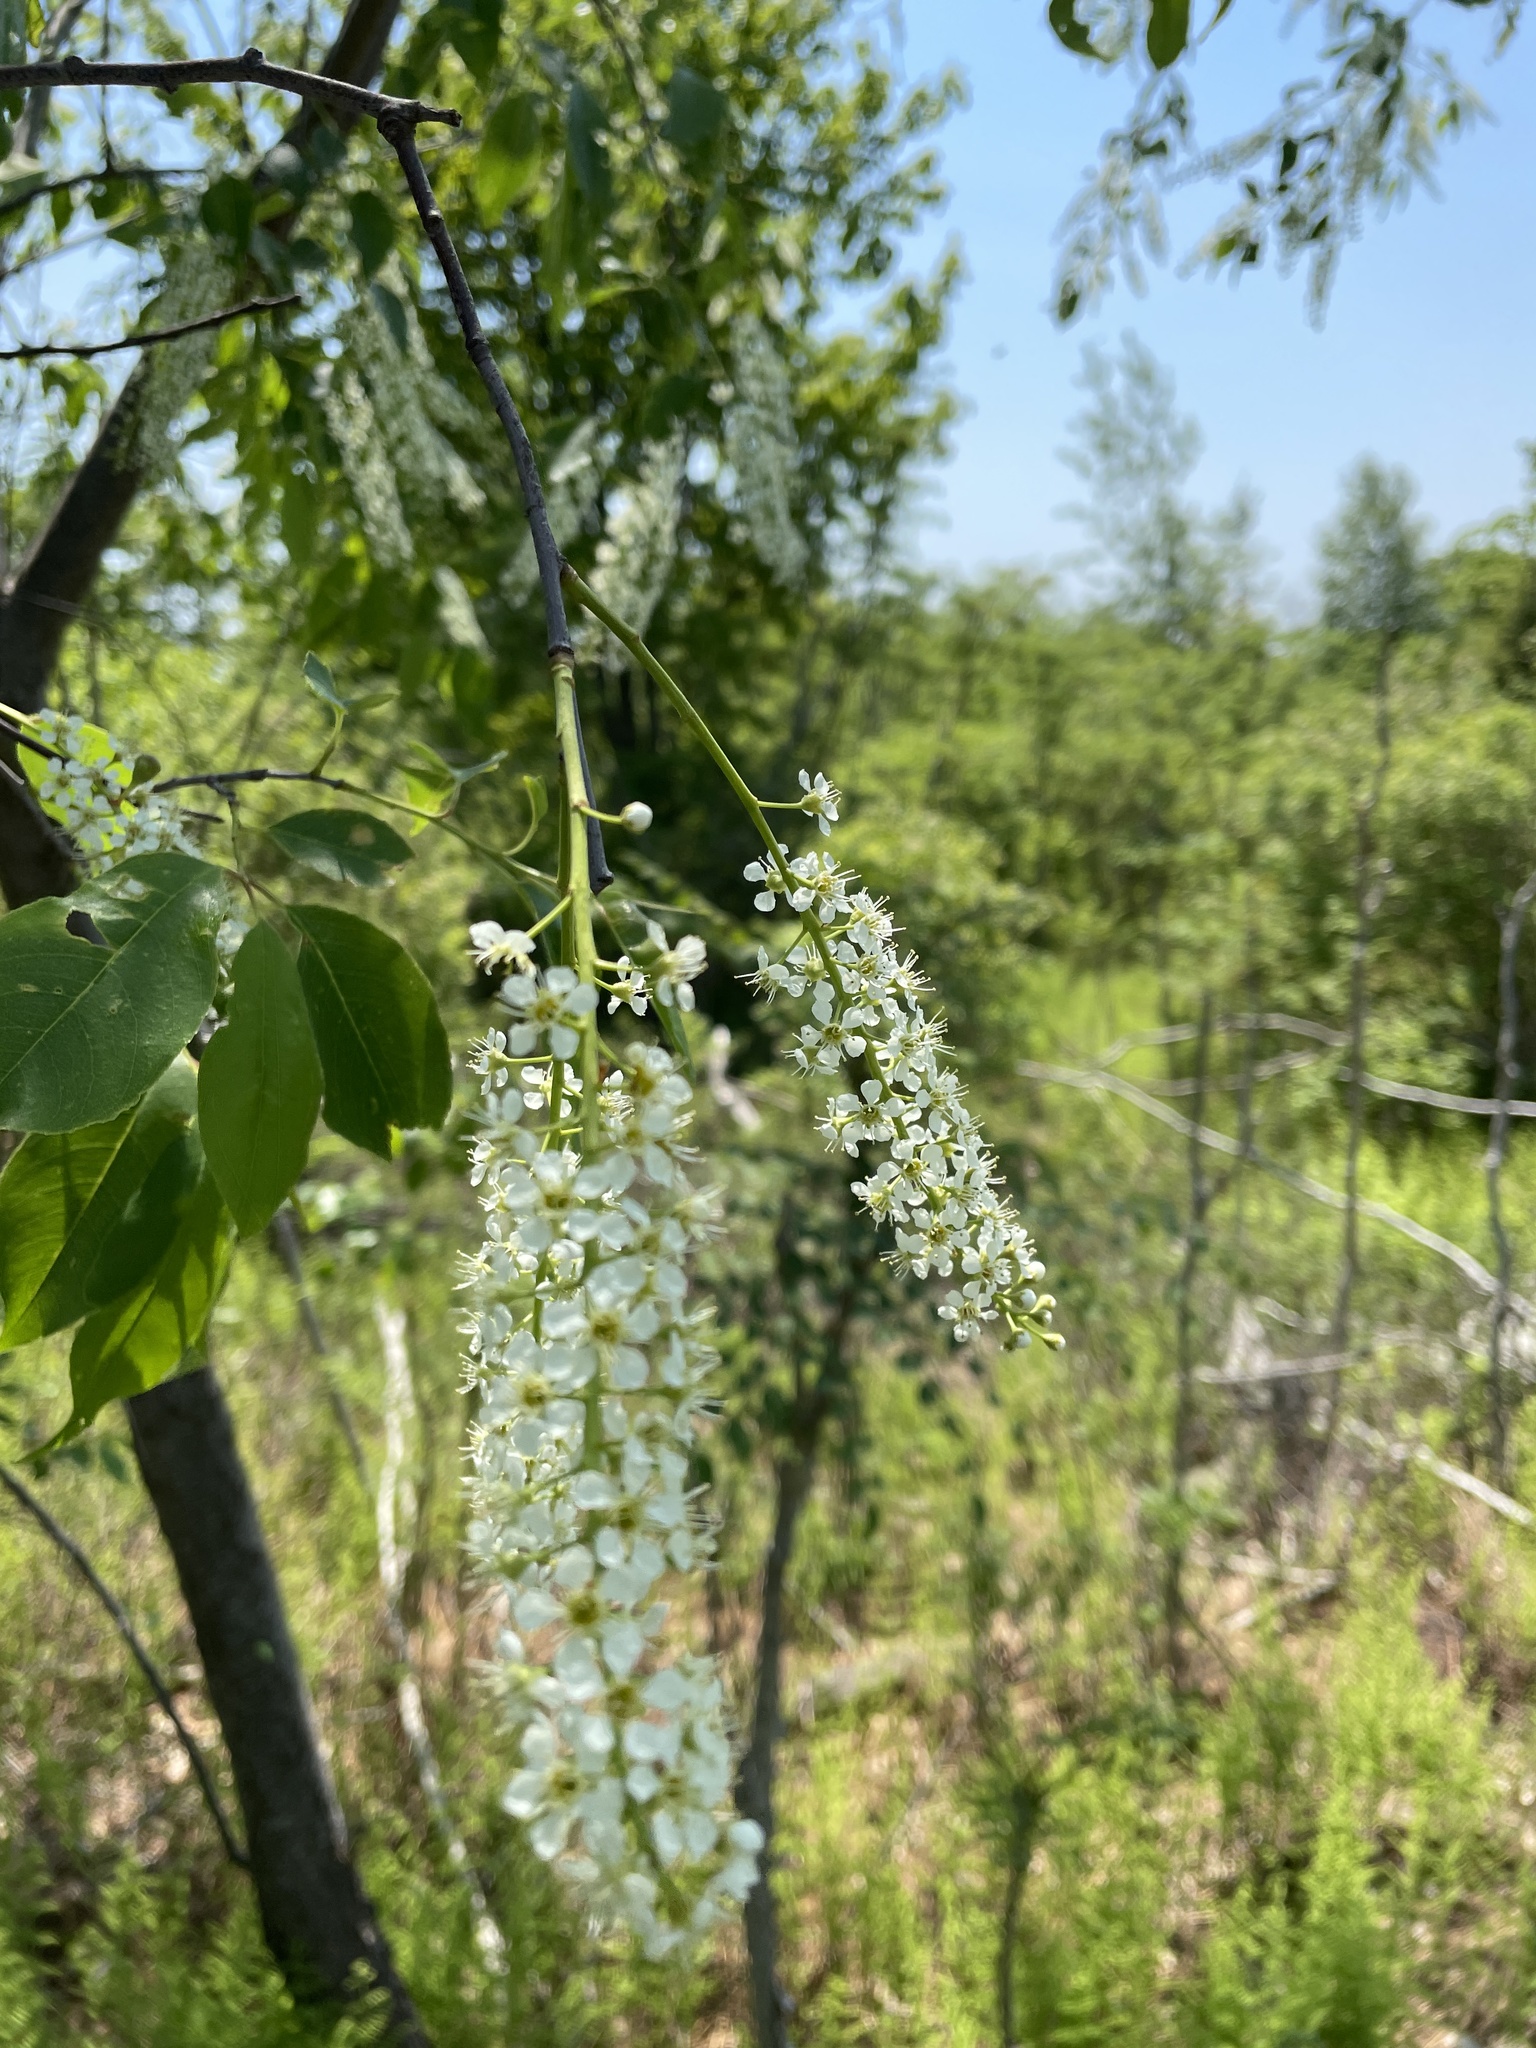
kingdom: Plantae
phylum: Tracheophyta
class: Magnoliopsida
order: Rosales
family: Rosaceae
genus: Prunus
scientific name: Prunus serotina
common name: Black cherry
